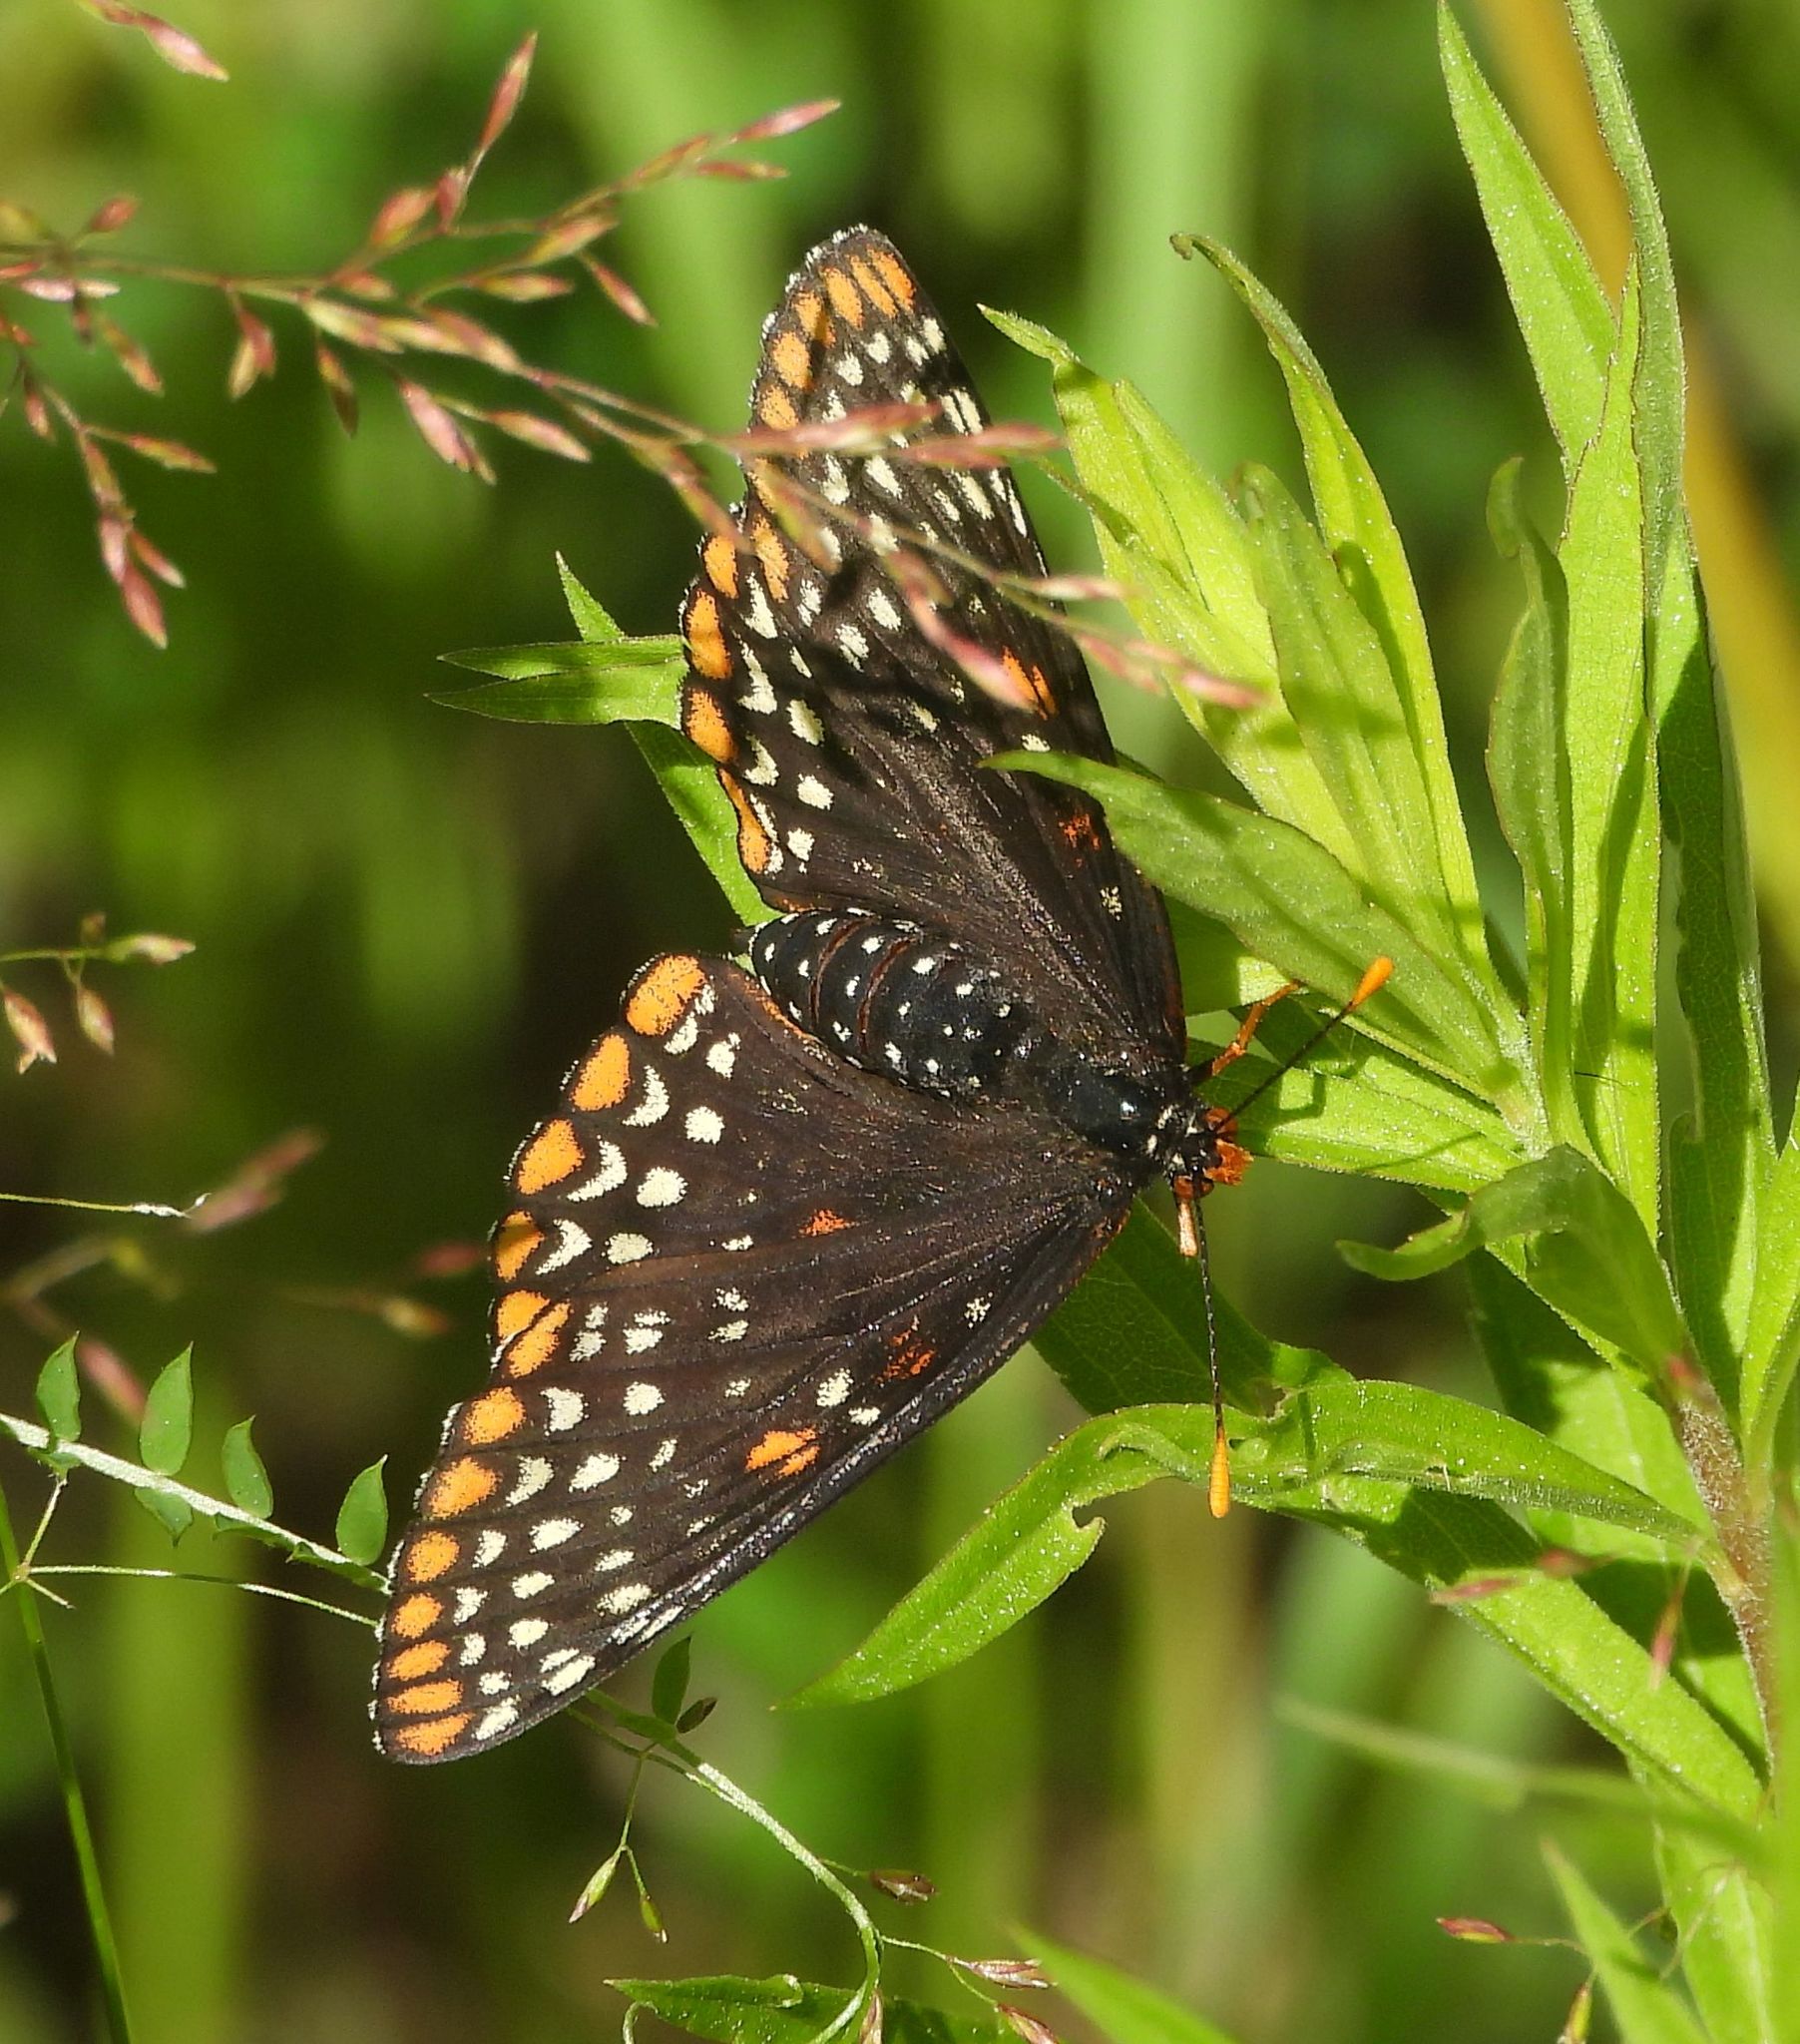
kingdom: Animalia
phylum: Arthropoda
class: Insecta
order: Lepidoptera
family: Nymphalidae
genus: Euphydryas
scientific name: Euphydryas phaeton
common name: Baltimore checkerspot
